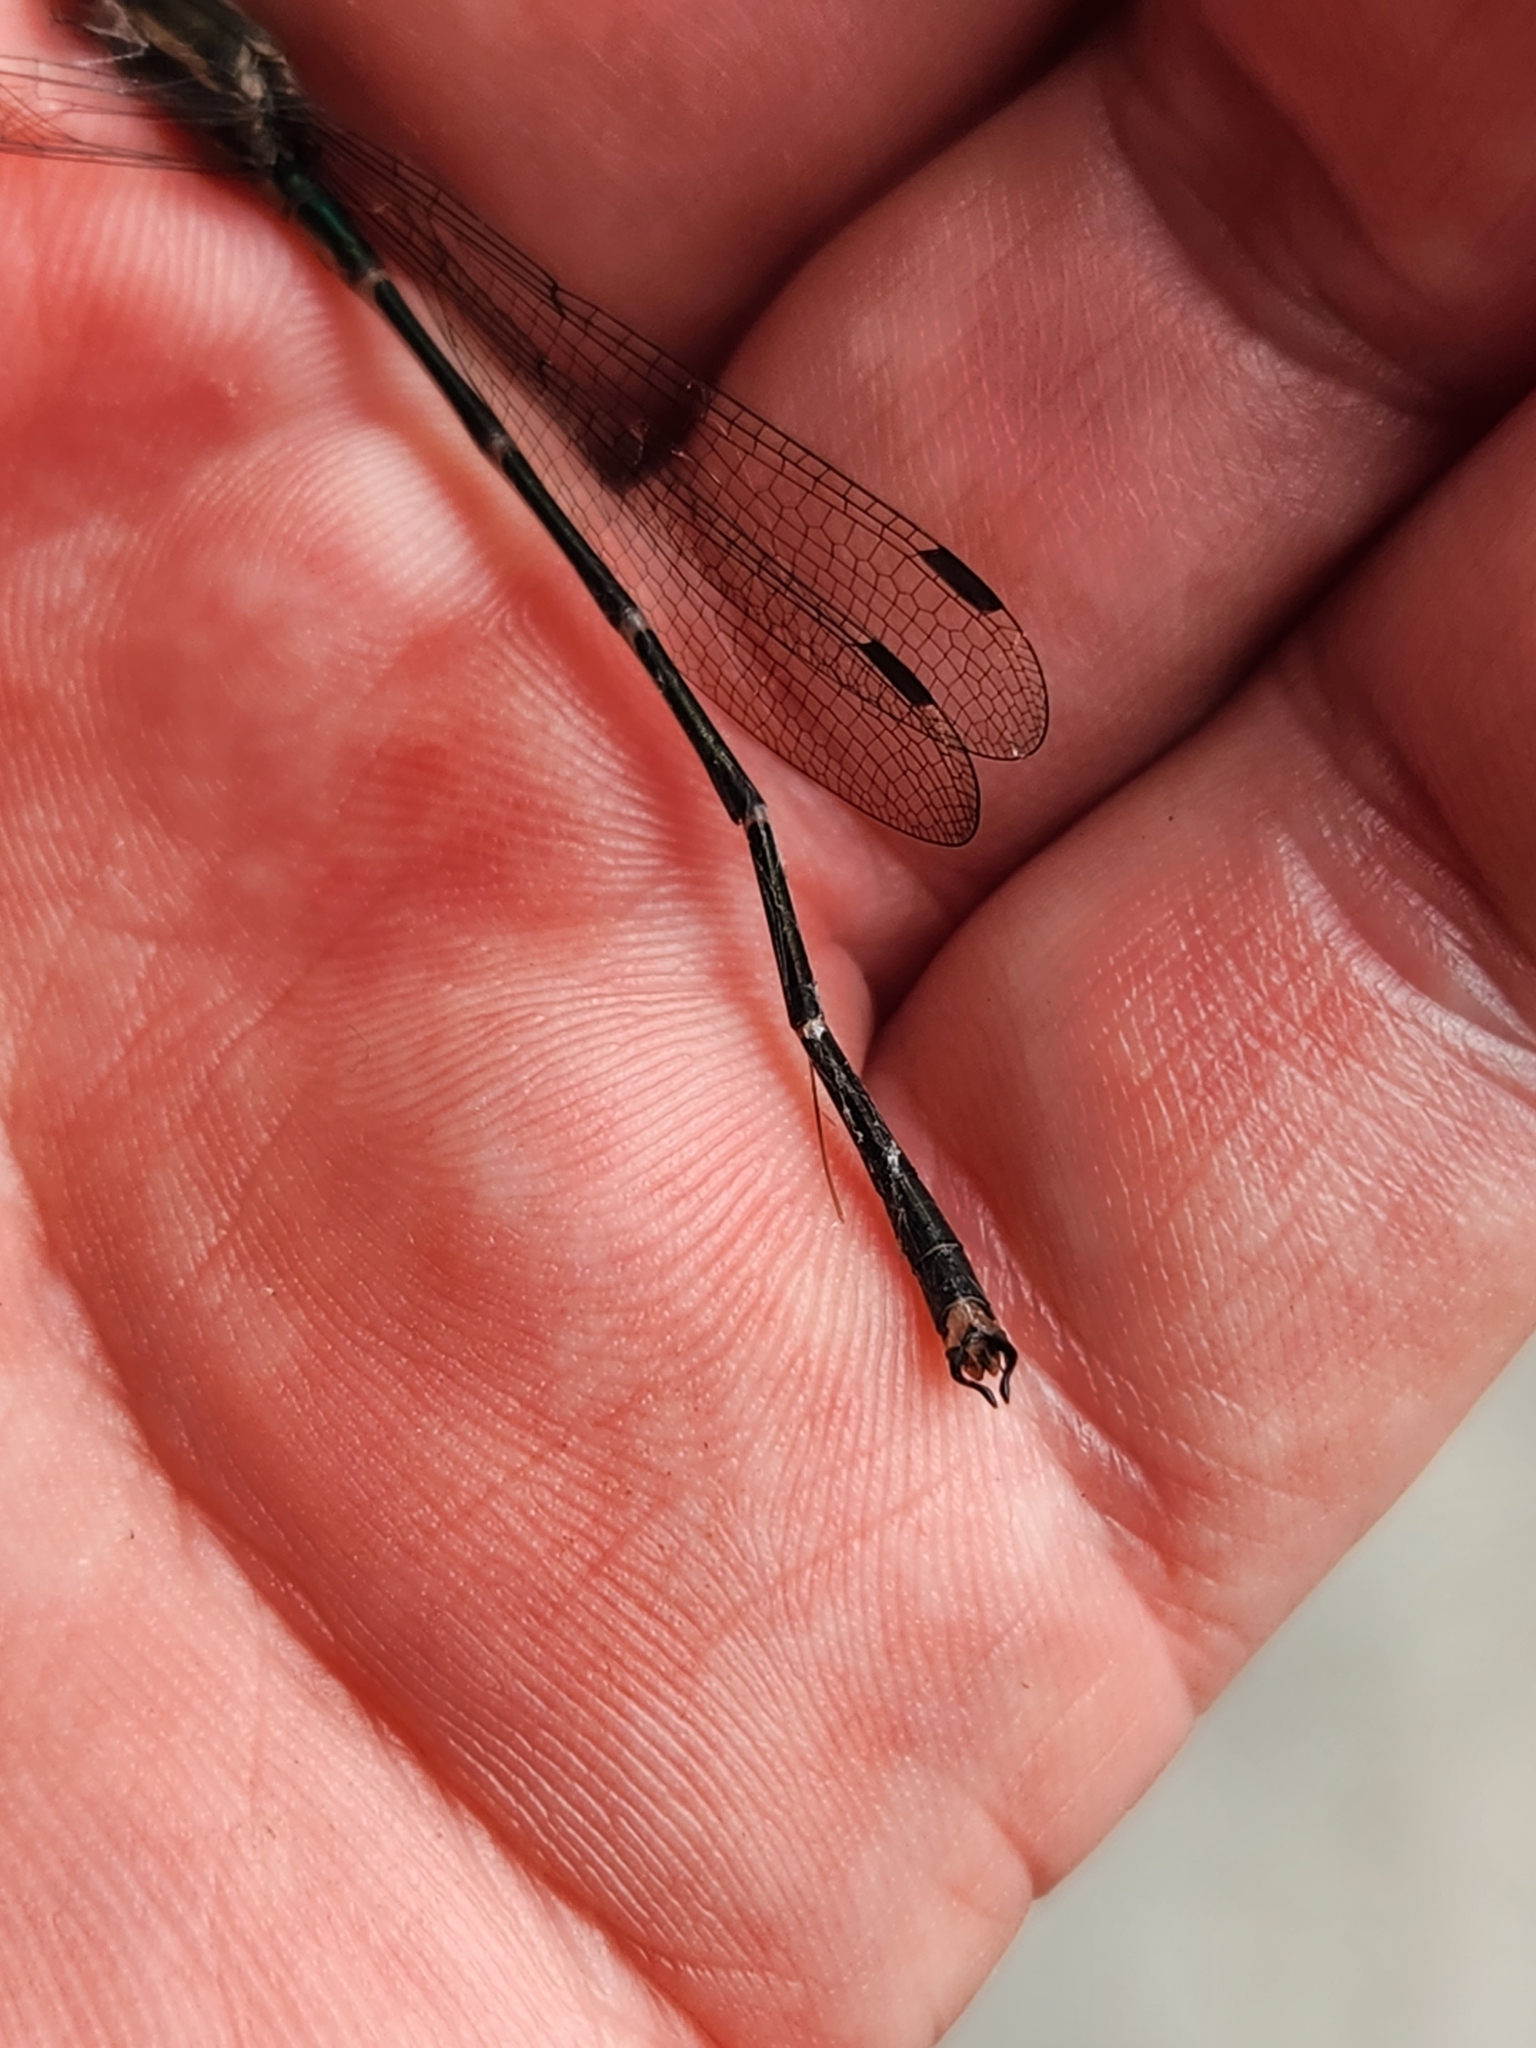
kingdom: Animalia
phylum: Arthropoda
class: Insecta
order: Odonata
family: Lestidae
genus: Austrolestes
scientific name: Austrolestes colensonis
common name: Blue damselfly
